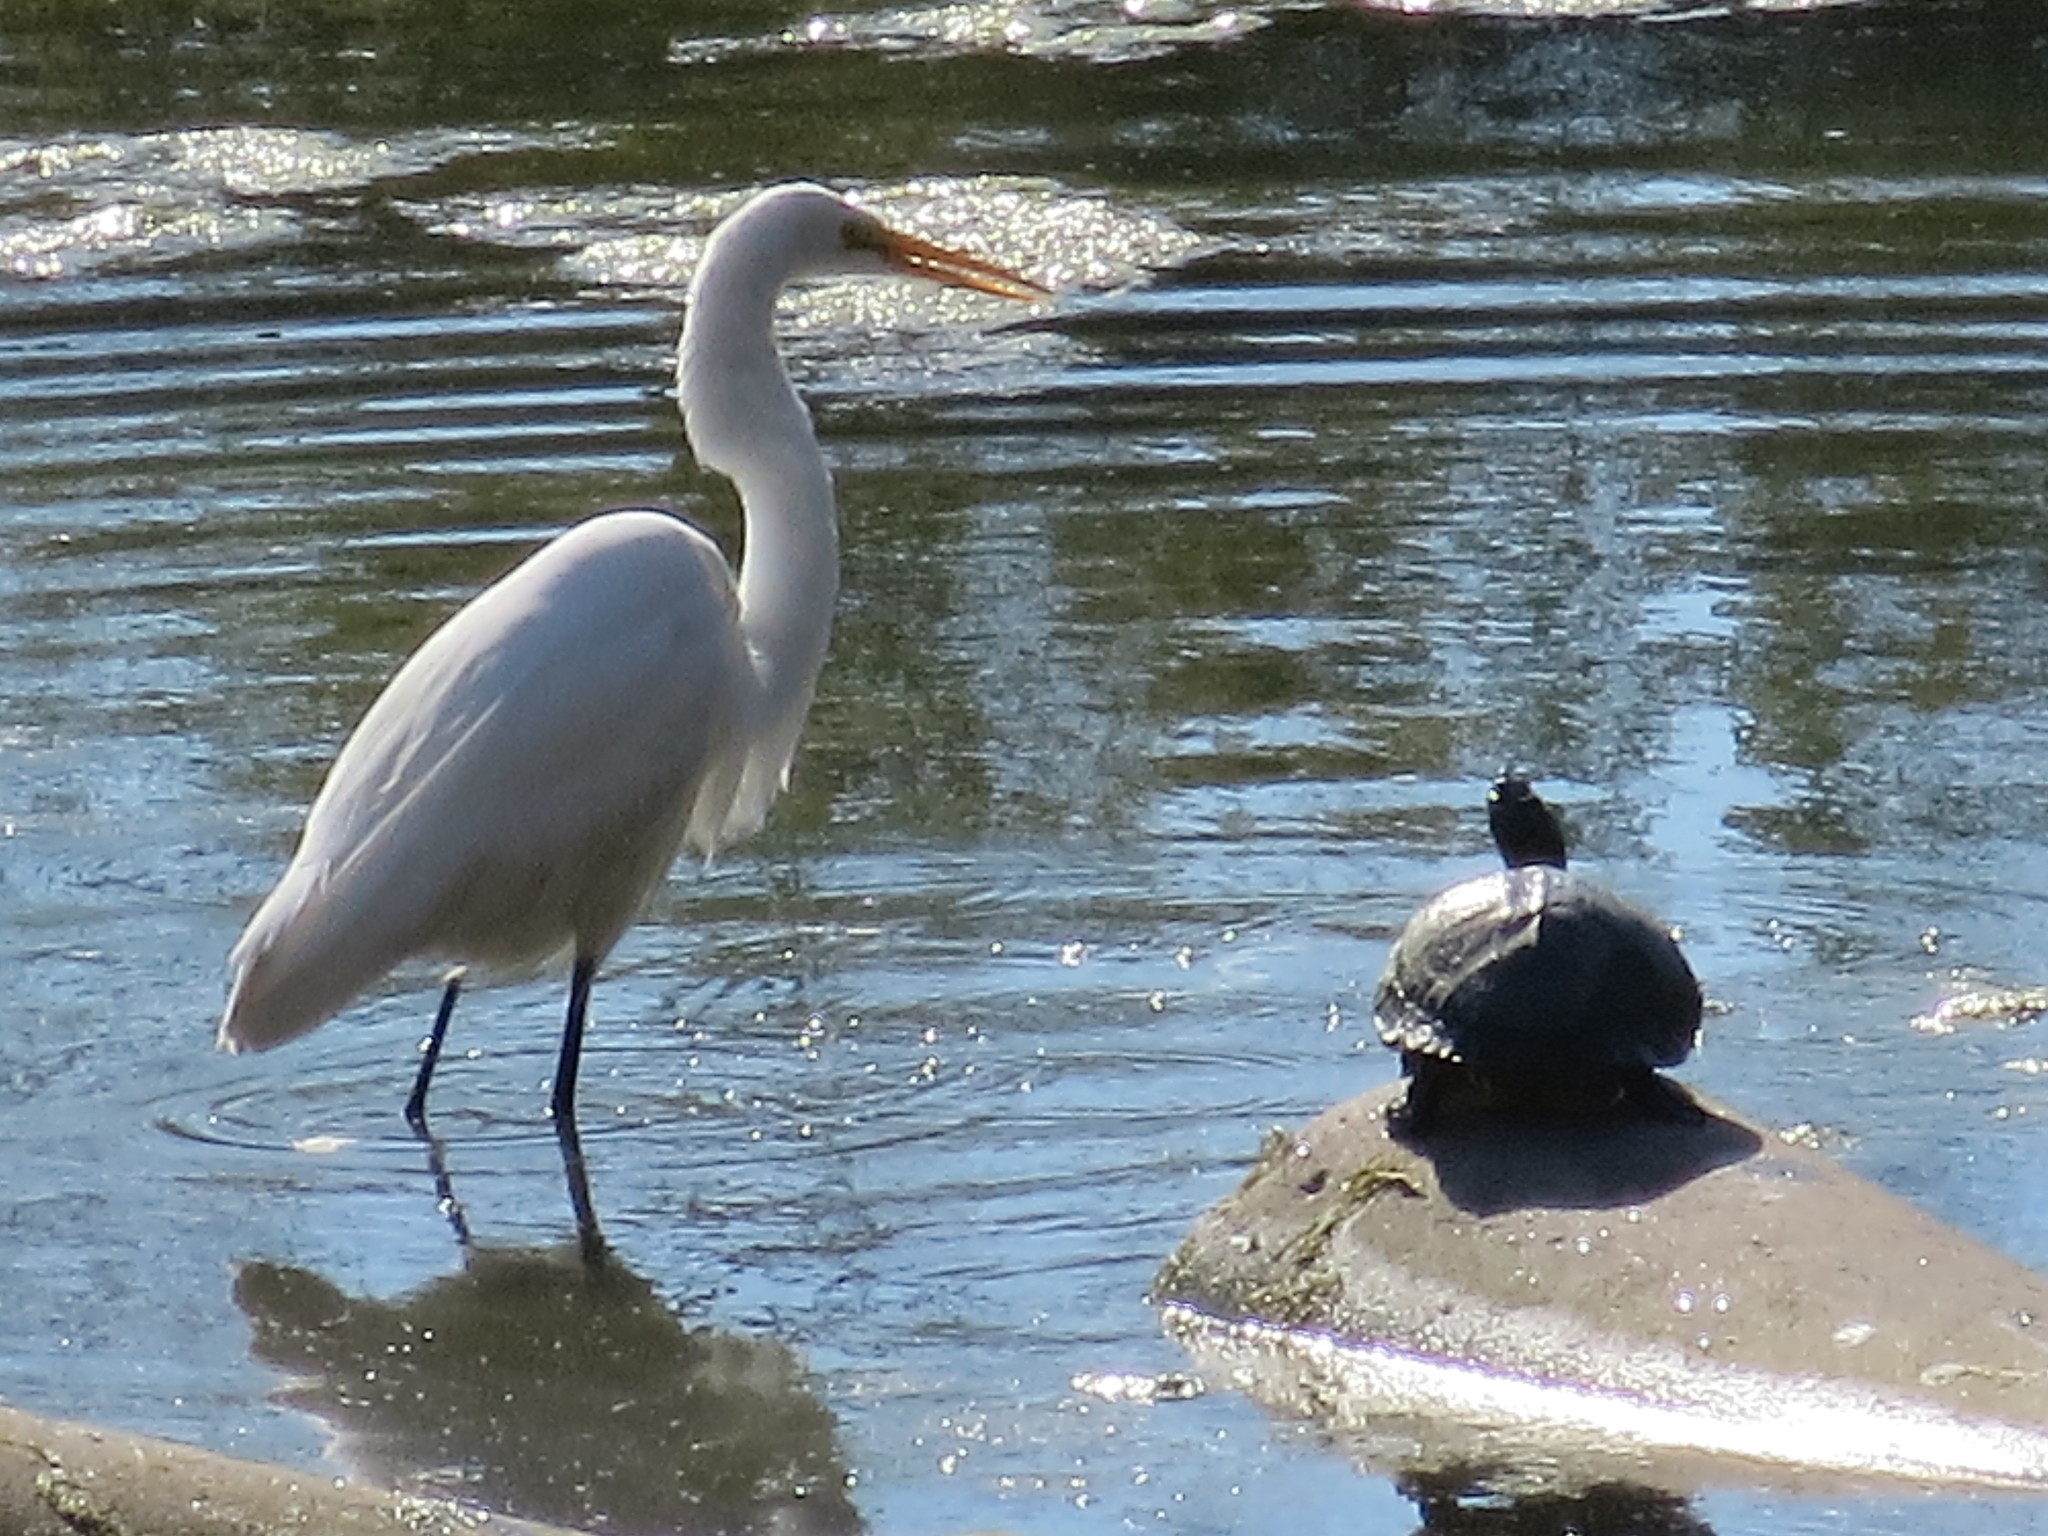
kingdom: Animalia
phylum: Chordata
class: Aves
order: Pelecaniformes
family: Ardeidae
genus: Ardea
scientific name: Ardea alba
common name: Great egret
